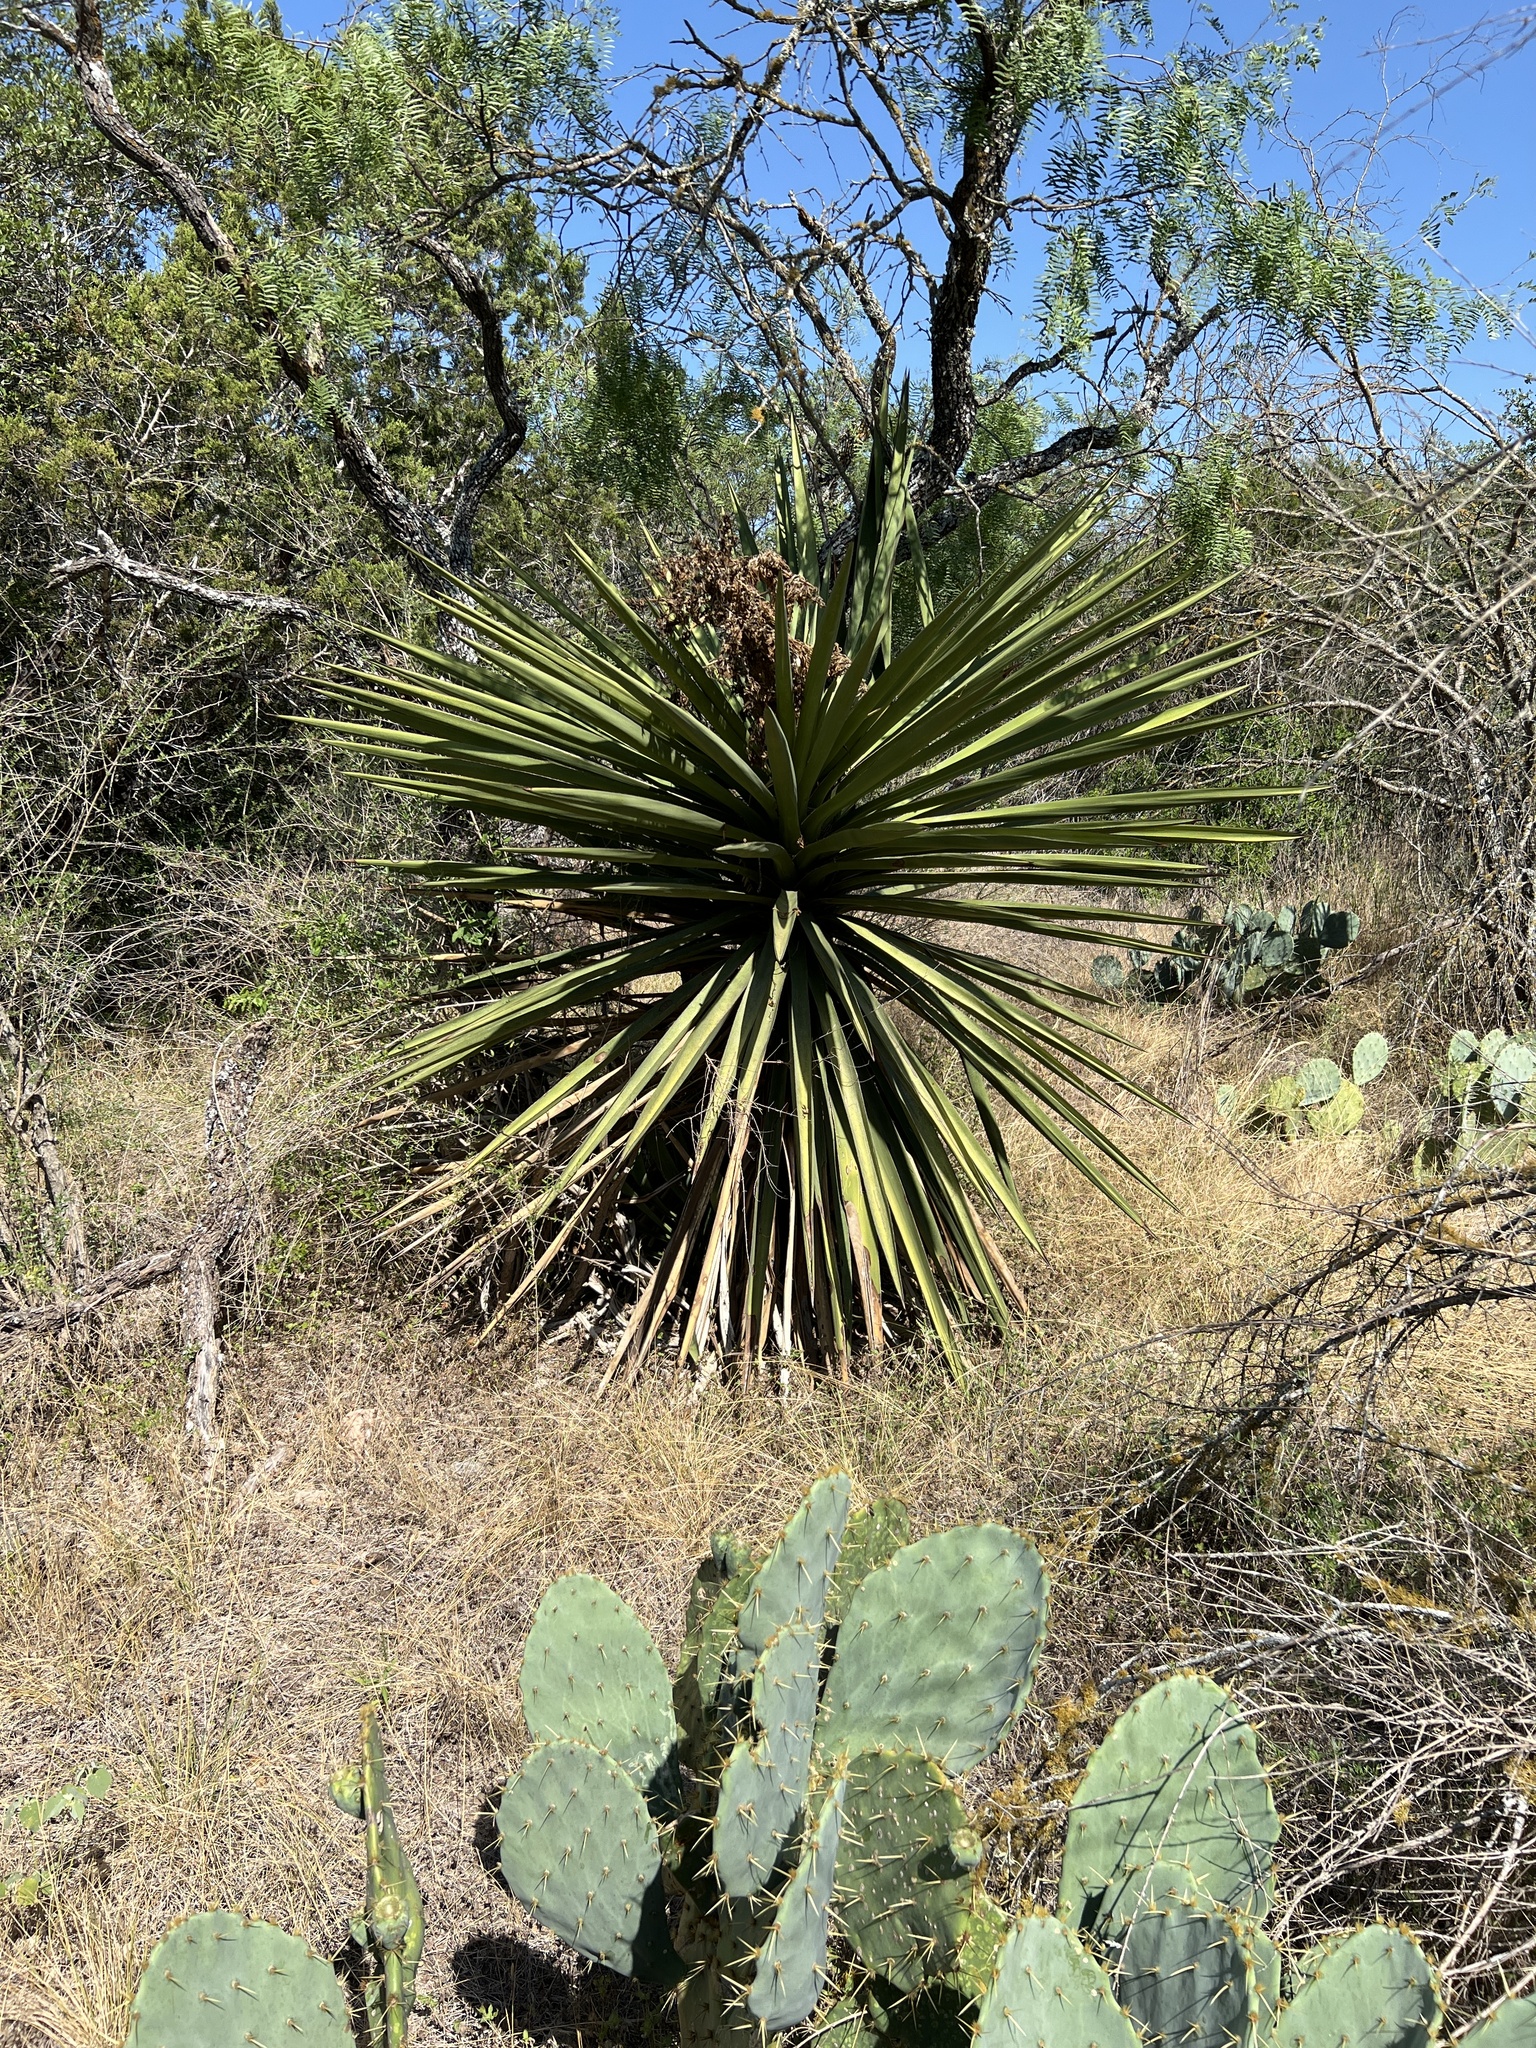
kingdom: Plantae
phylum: Tracheophyta
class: Liliopsida
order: Asparagales
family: Asparagaceae
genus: Yucca
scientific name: Yucca treculiana
